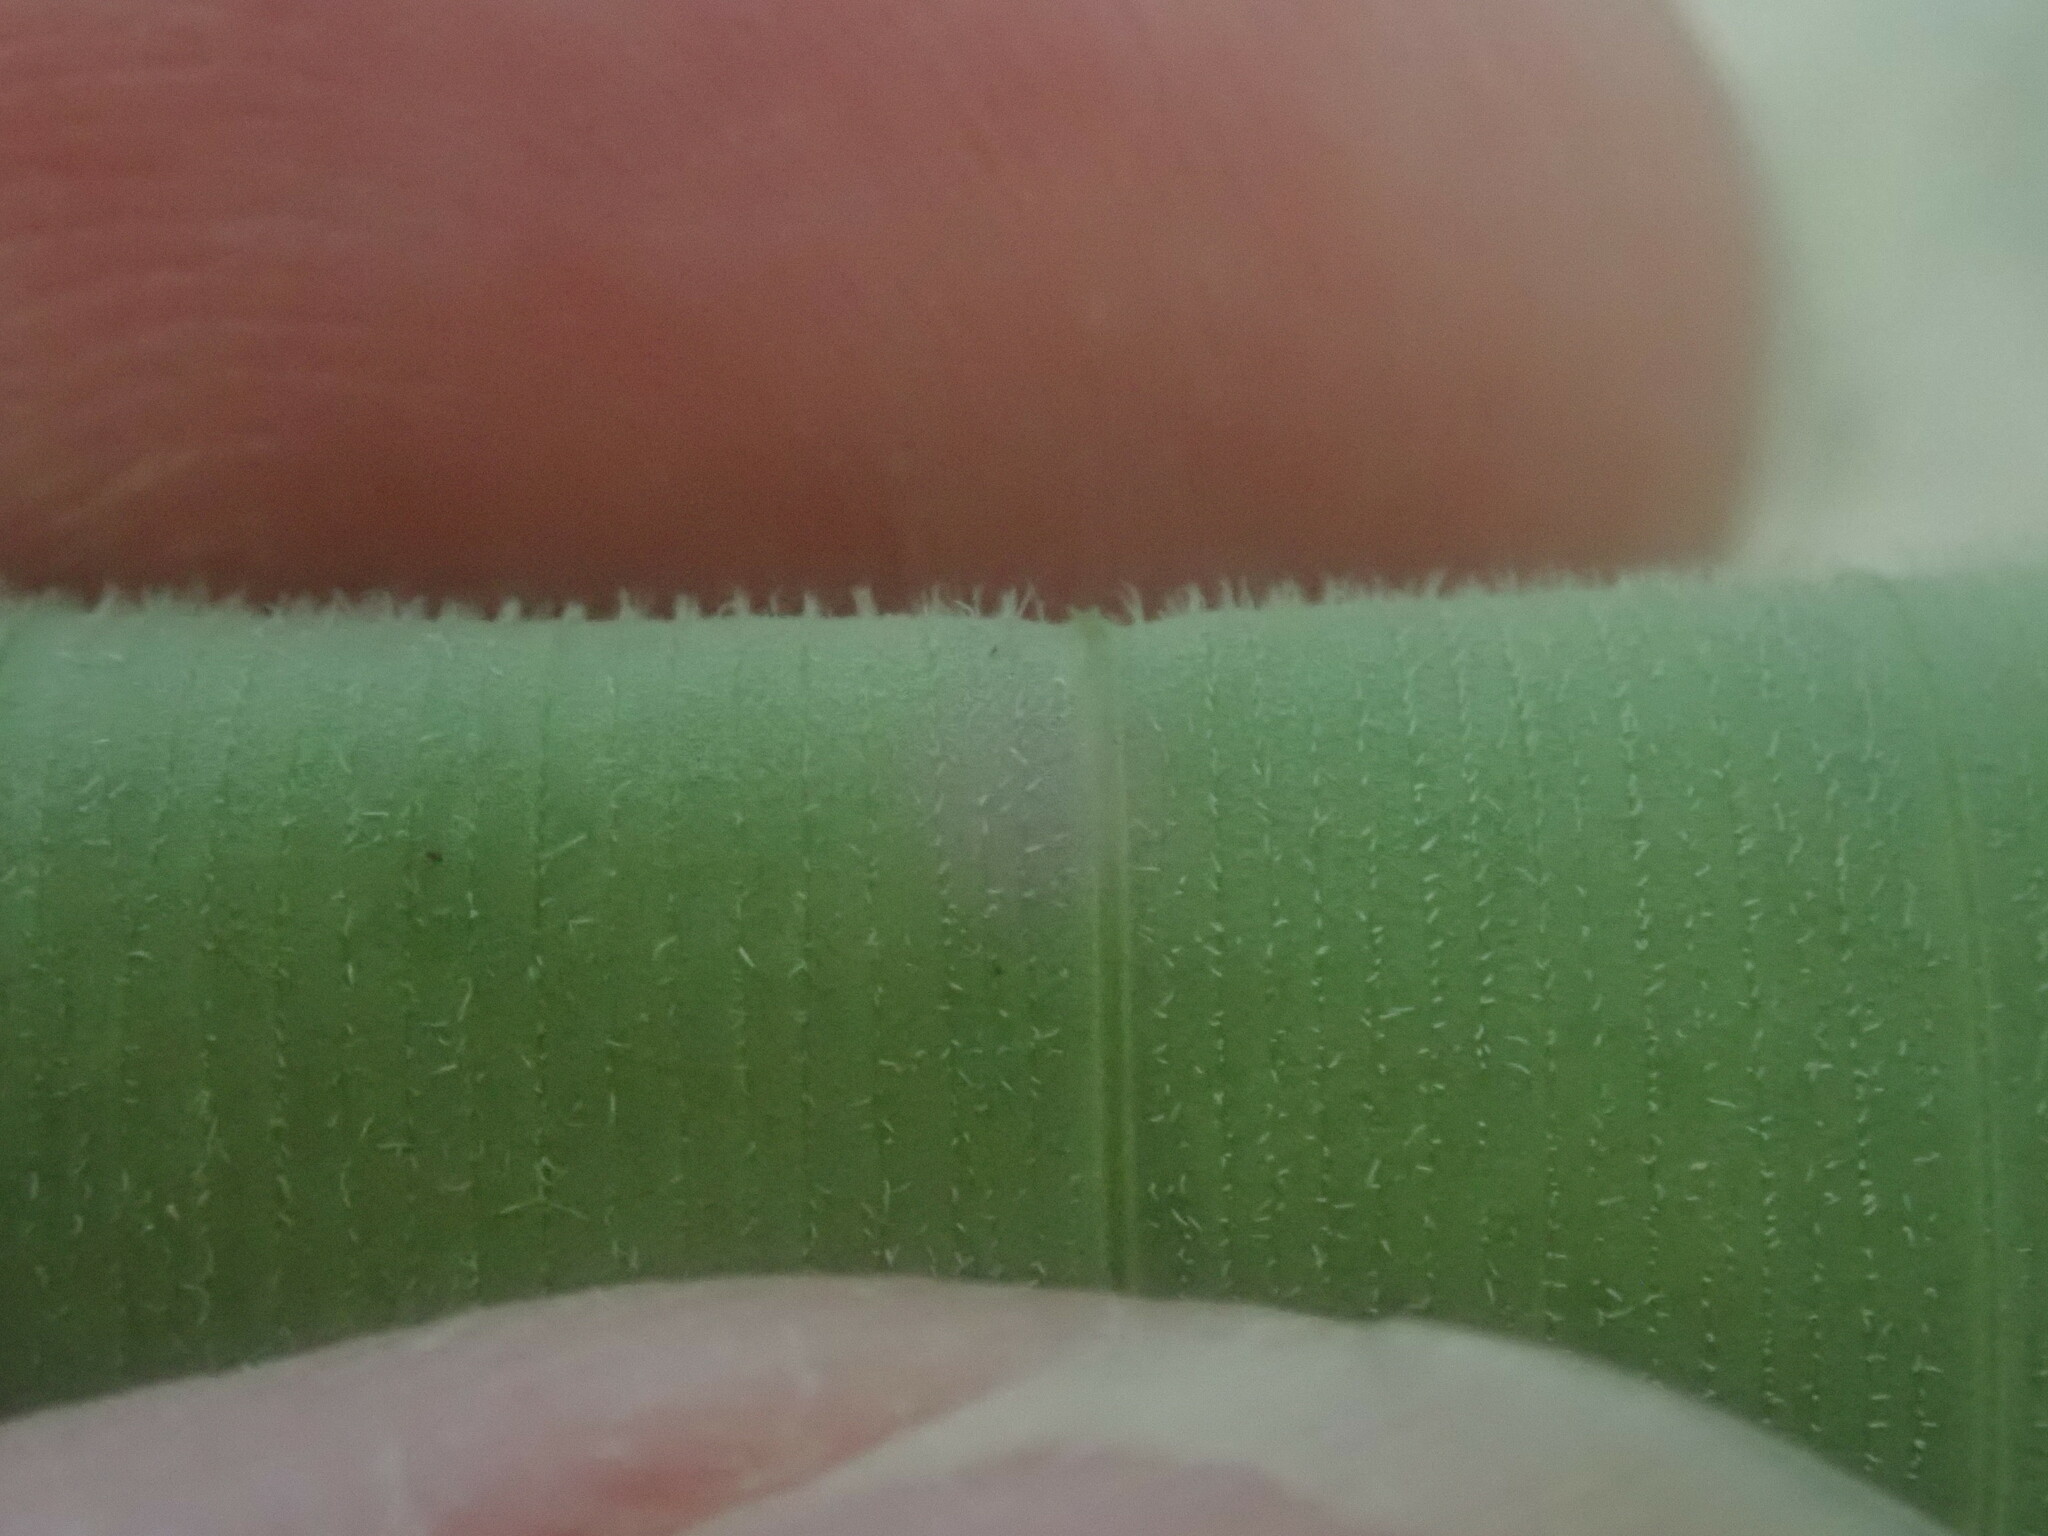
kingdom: Plantae
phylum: Tracheophyta
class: Liliopsida
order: Asparagales
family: Asparagaceae
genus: Polygonatum
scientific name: Polygonatum pubescens
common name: Downy solomon's seal
